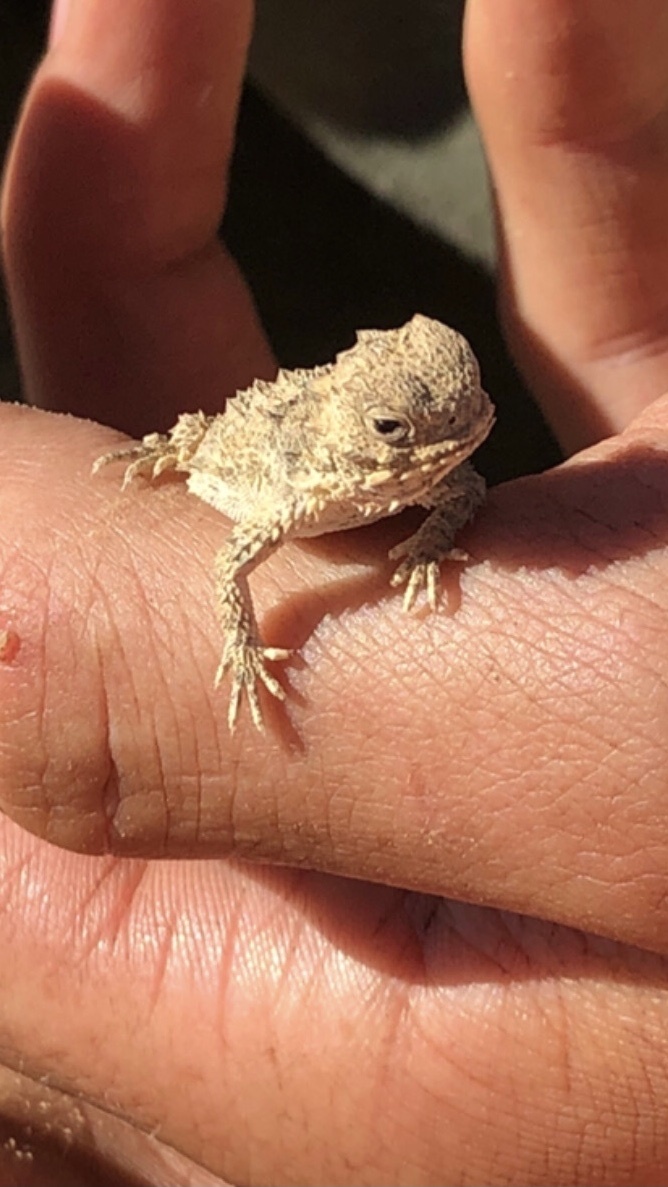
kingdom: Animalia
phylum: Chordata
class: Squamata
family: Phrynosomatidae
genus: Phrynosoma
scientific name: Phrynosoma blainvillii
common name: San diego horned lizard
